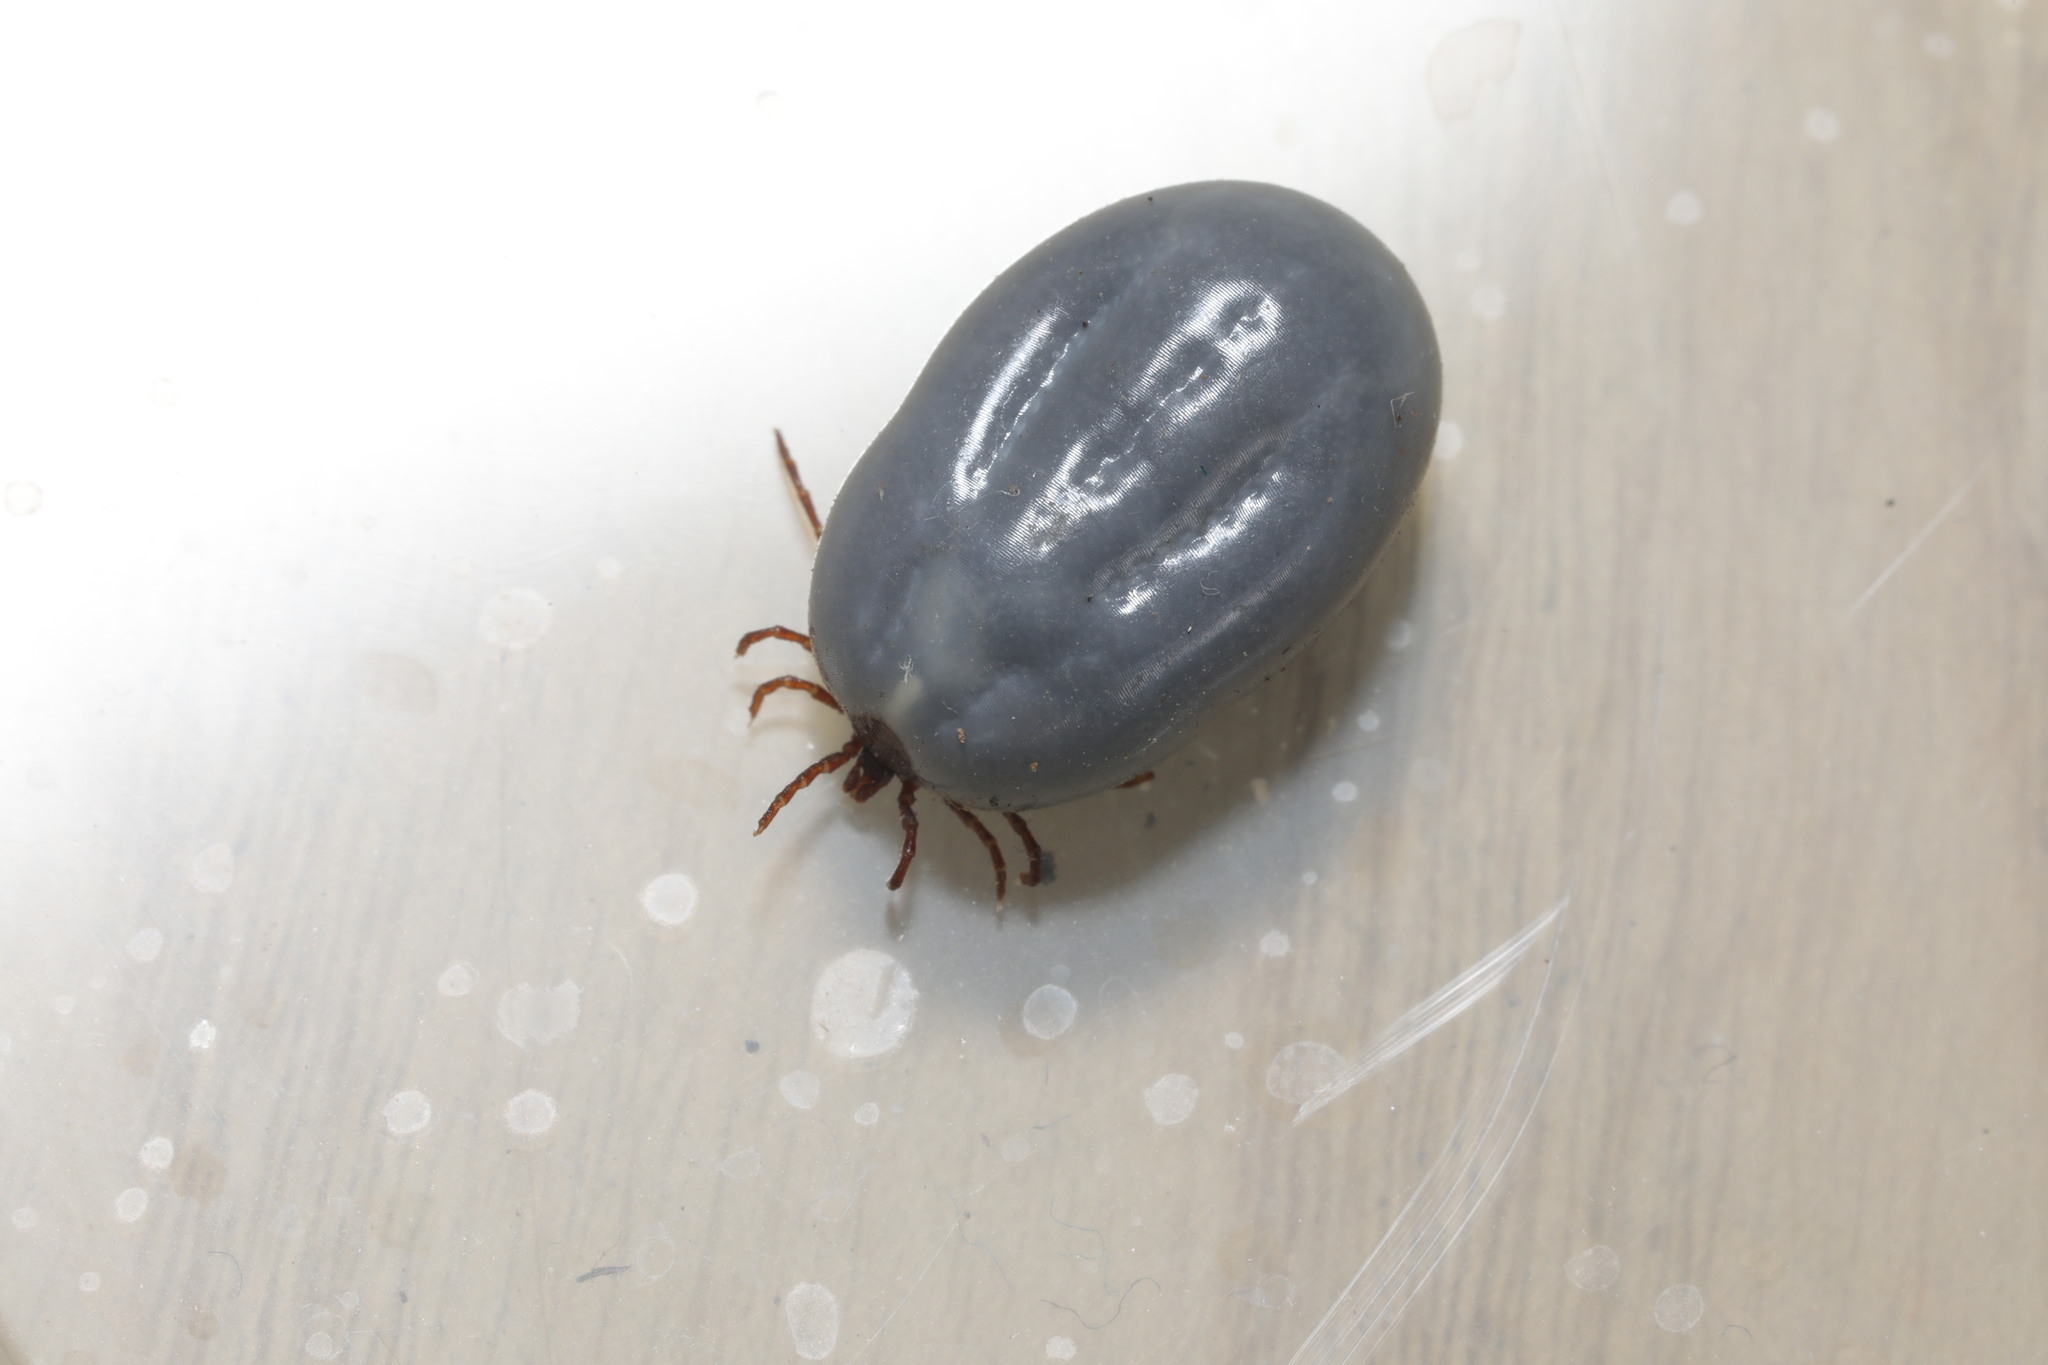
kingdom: Animalia
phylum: Arthropoda
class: Arachnida
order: Ixodida
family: Ixodidae
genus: Ixodes
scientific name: Ixodes hexagonus
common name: Hedgehog tick
